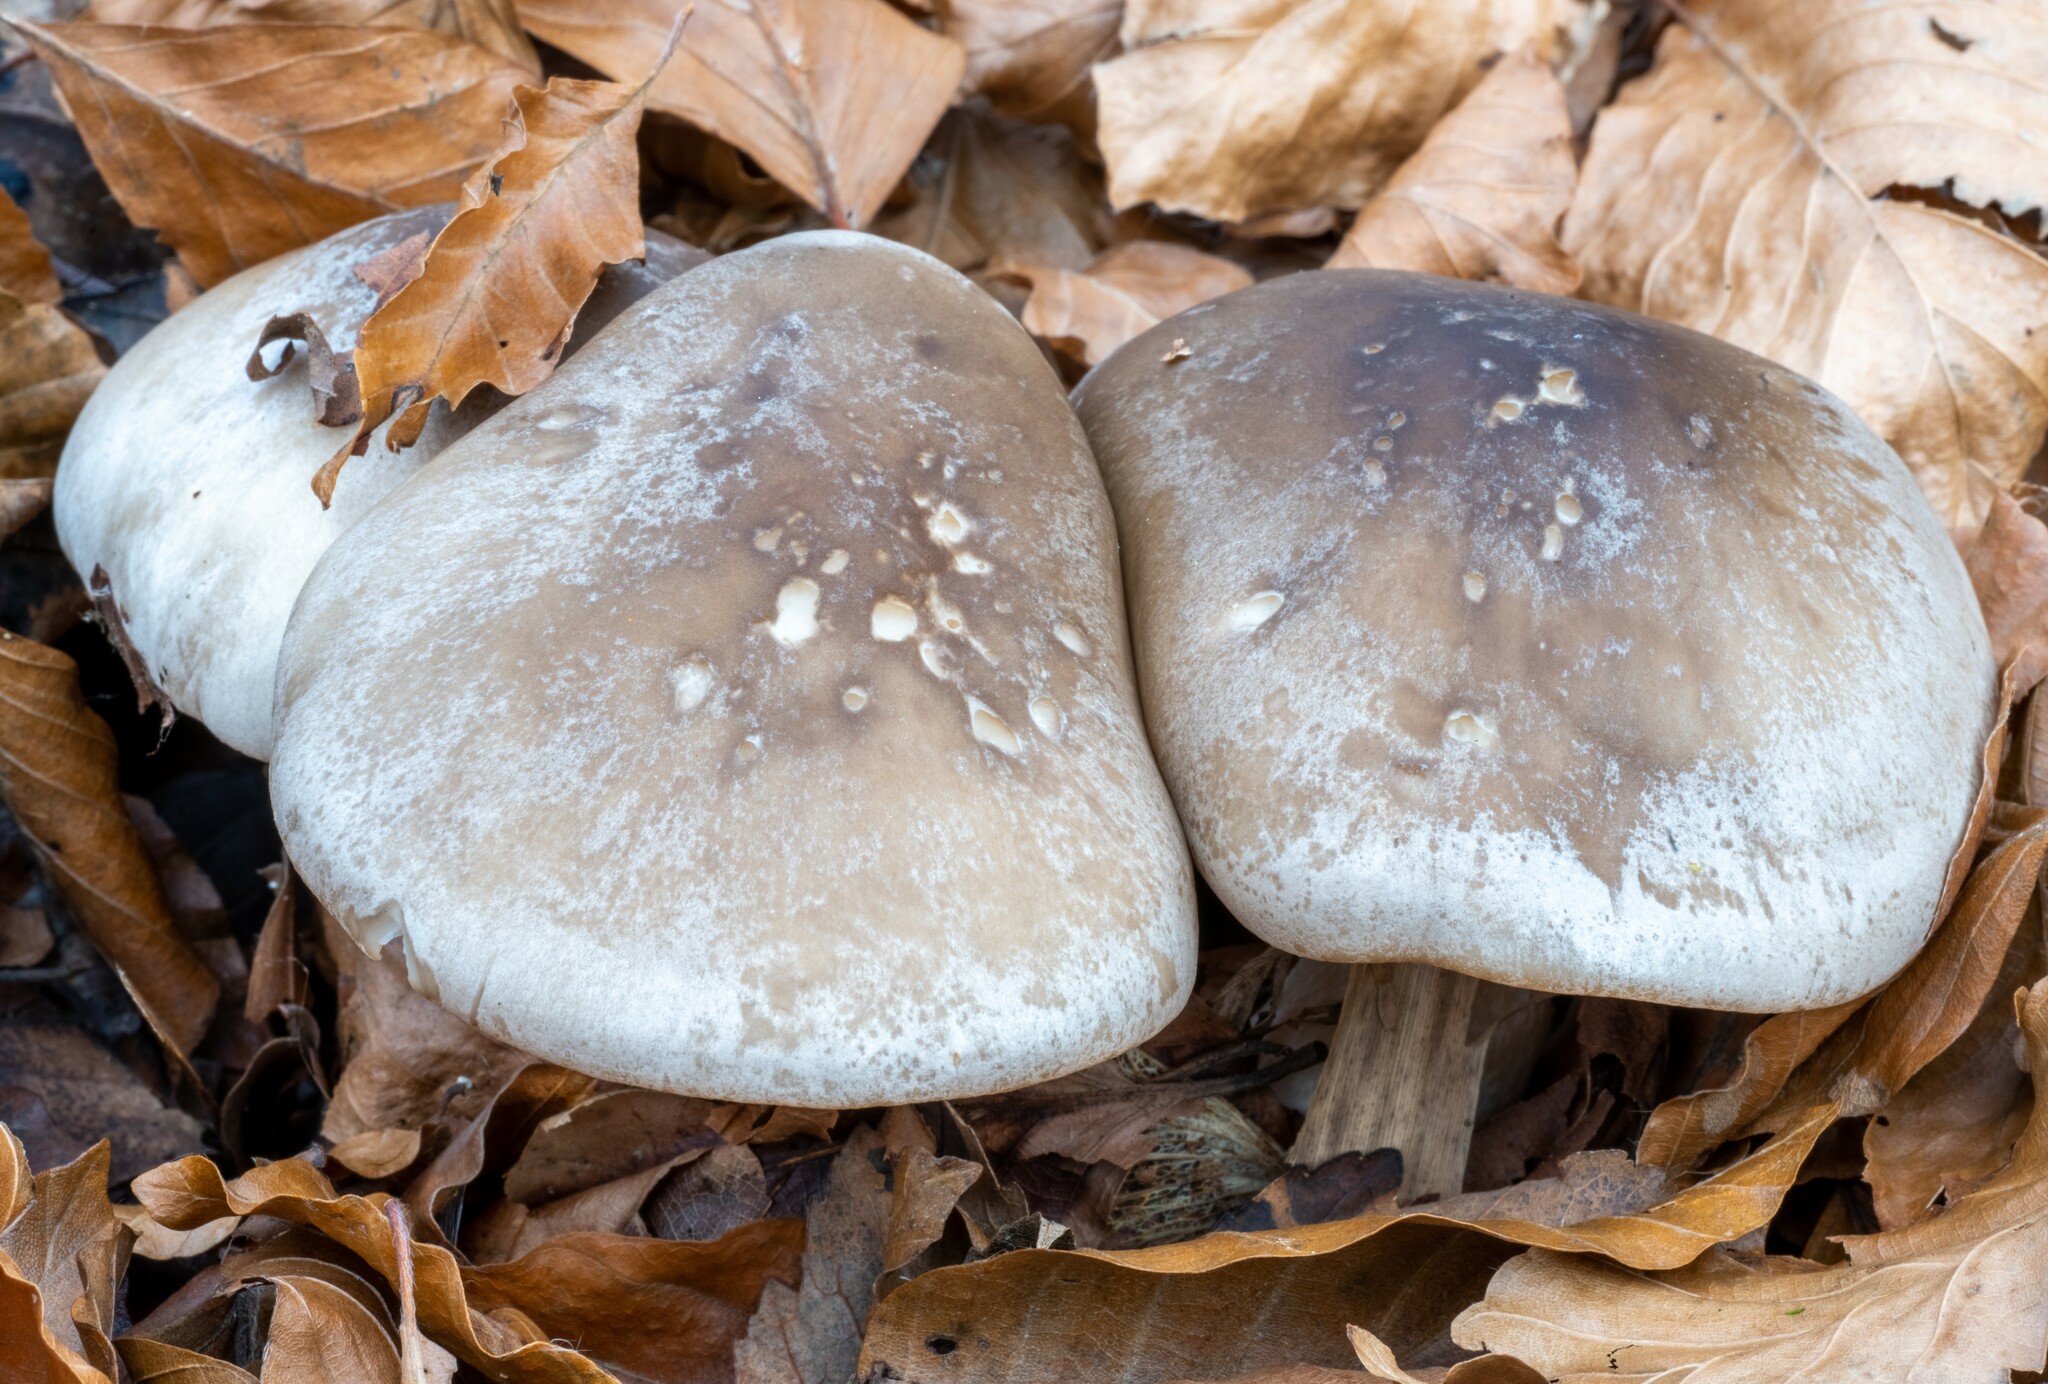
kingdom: Fungi
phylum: Basidiomycota
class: Agaricomycetes
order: Agaricales
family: Tricholomataceae
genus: Clitocybe
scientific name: Clitocybe nebularis
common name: Clouded agaric
